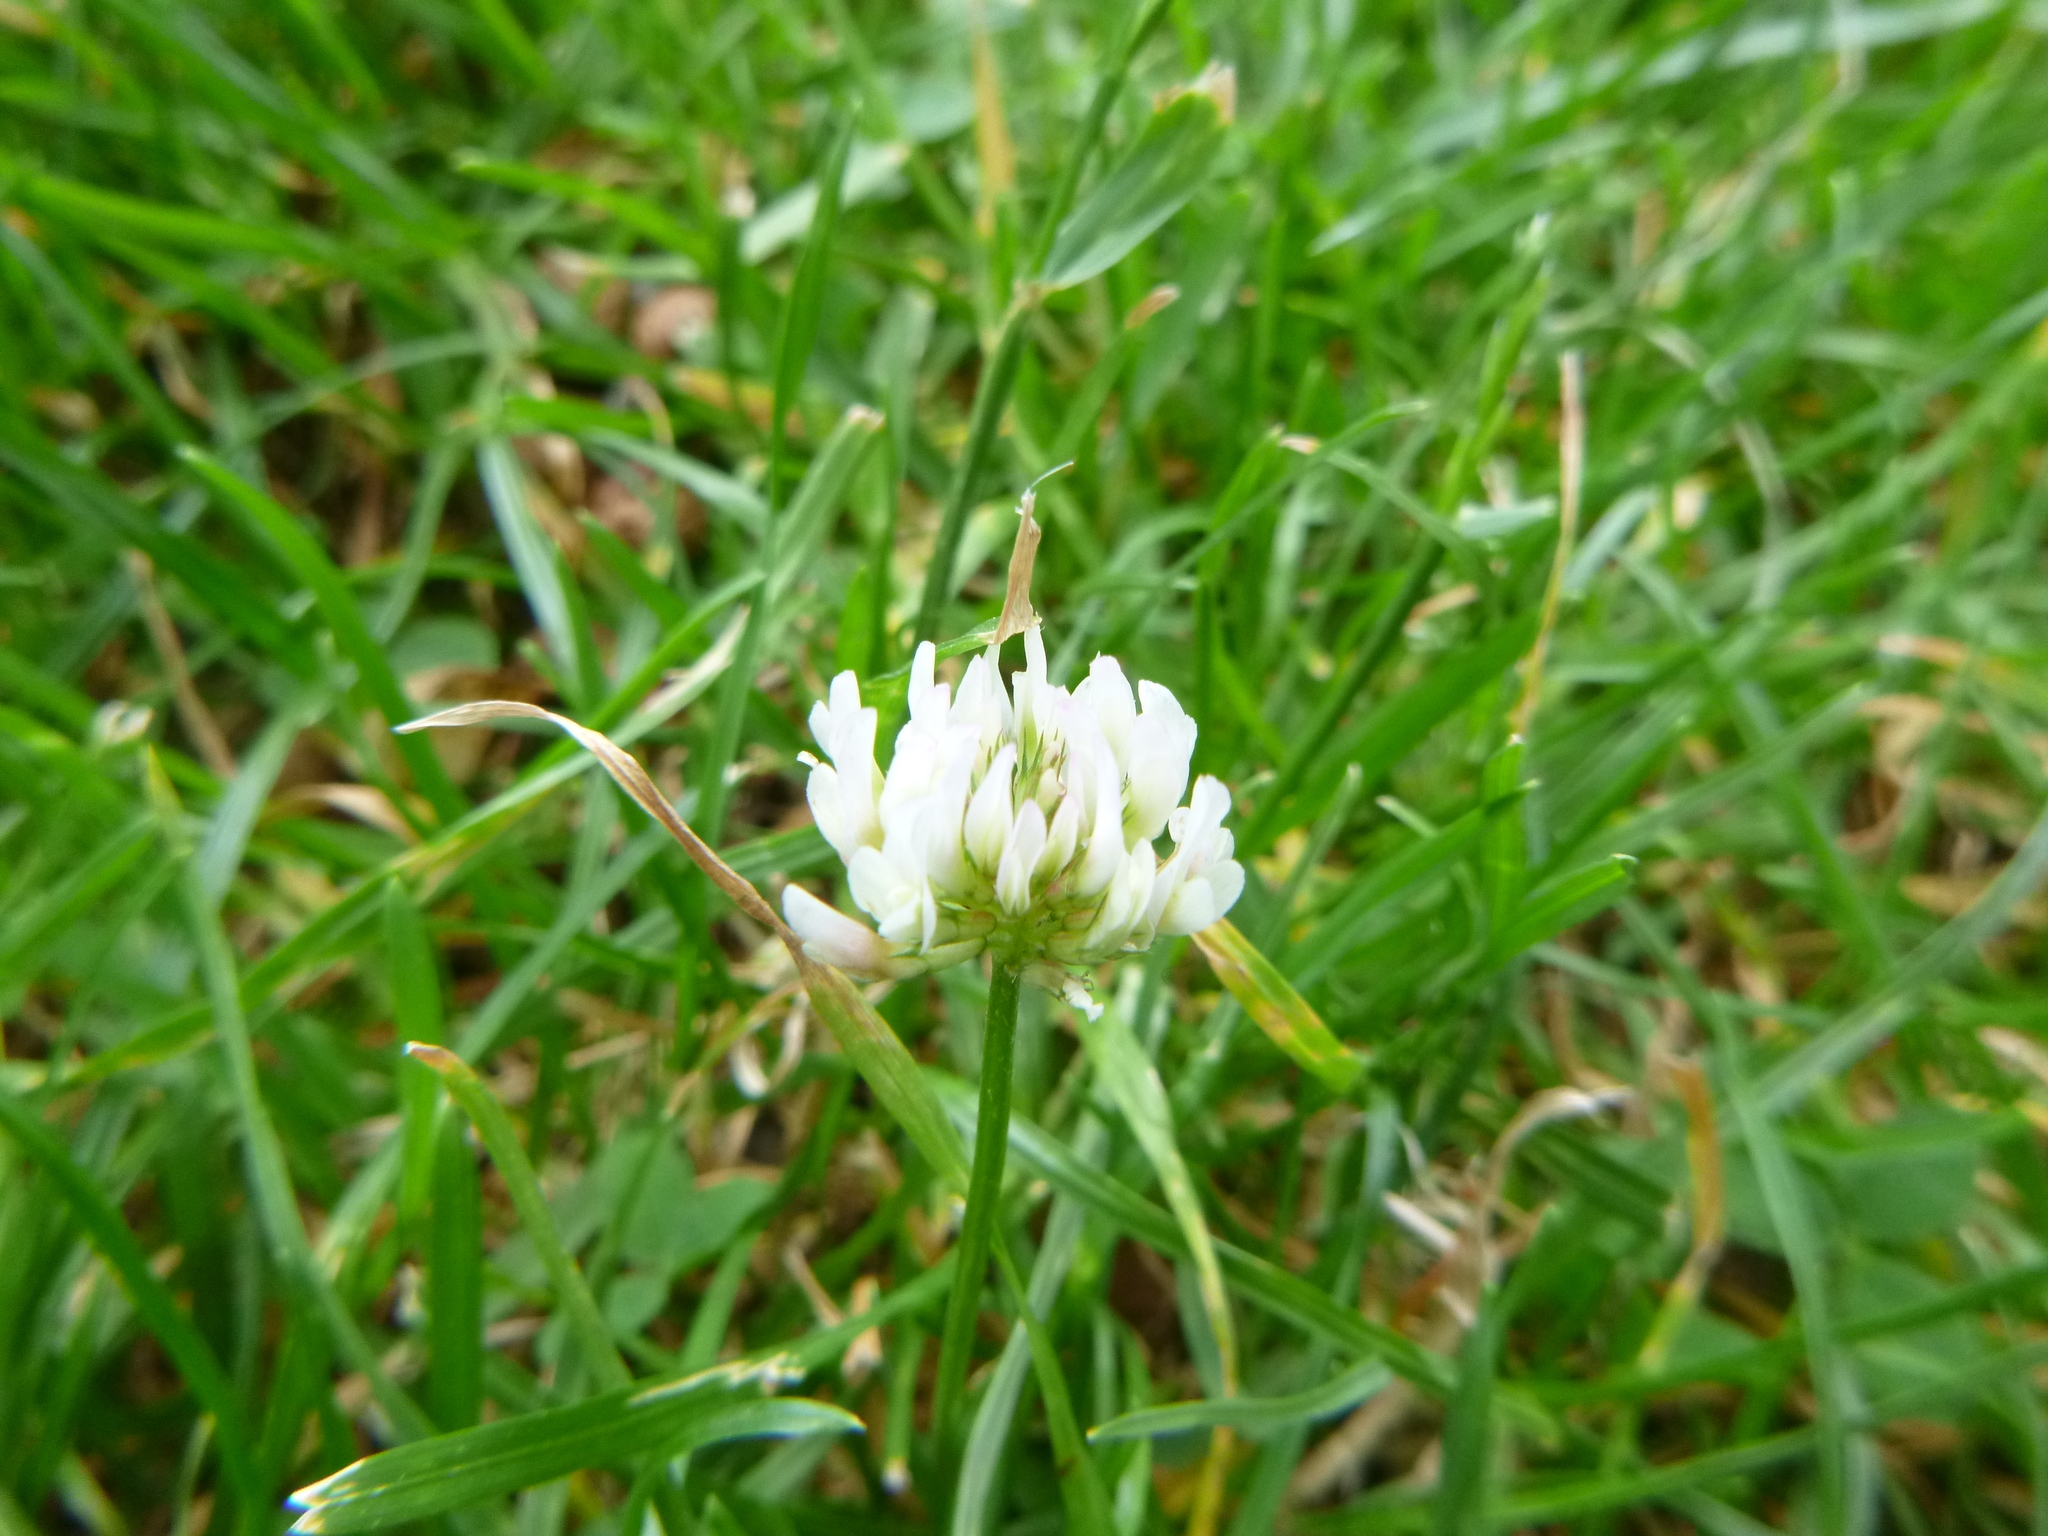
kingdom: Plantae
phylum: Tracheophyta
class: Magnoliopsida
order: Fabales
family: Fabaceae
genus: Trifolium
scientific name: Trifolium repens
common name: White clover
